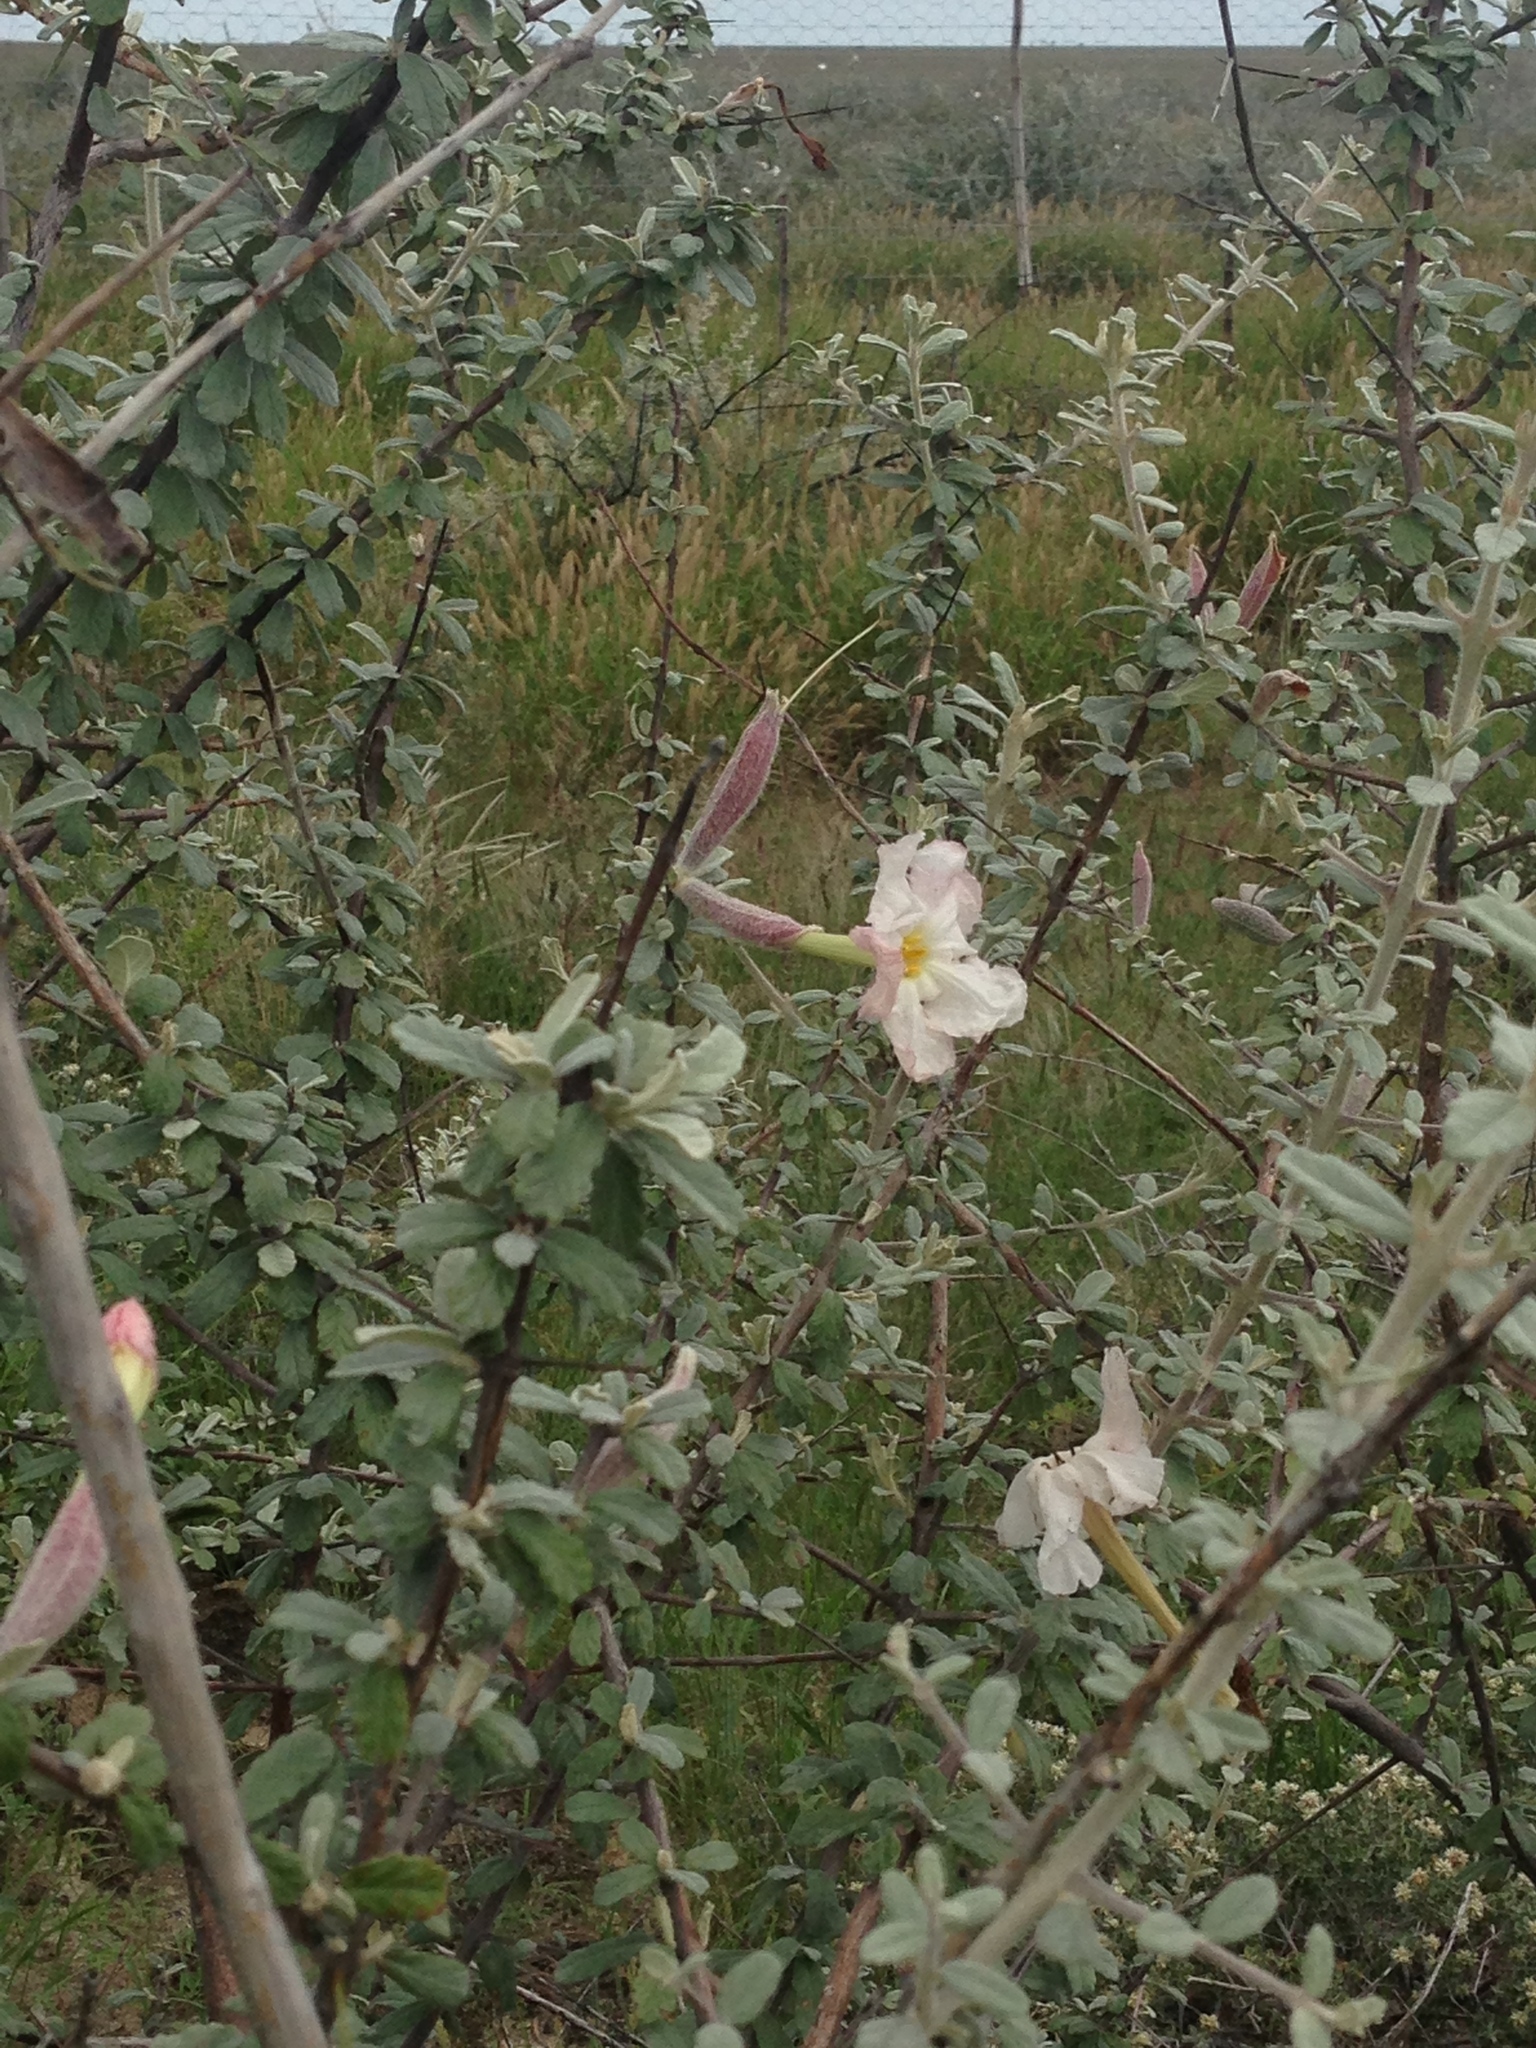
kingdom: Plantae
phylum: Tracheophyta
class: Magnoliopsida
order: Lamiales
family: Bignoniaceae
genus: Catophractes
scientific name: Catophractes alexandri
